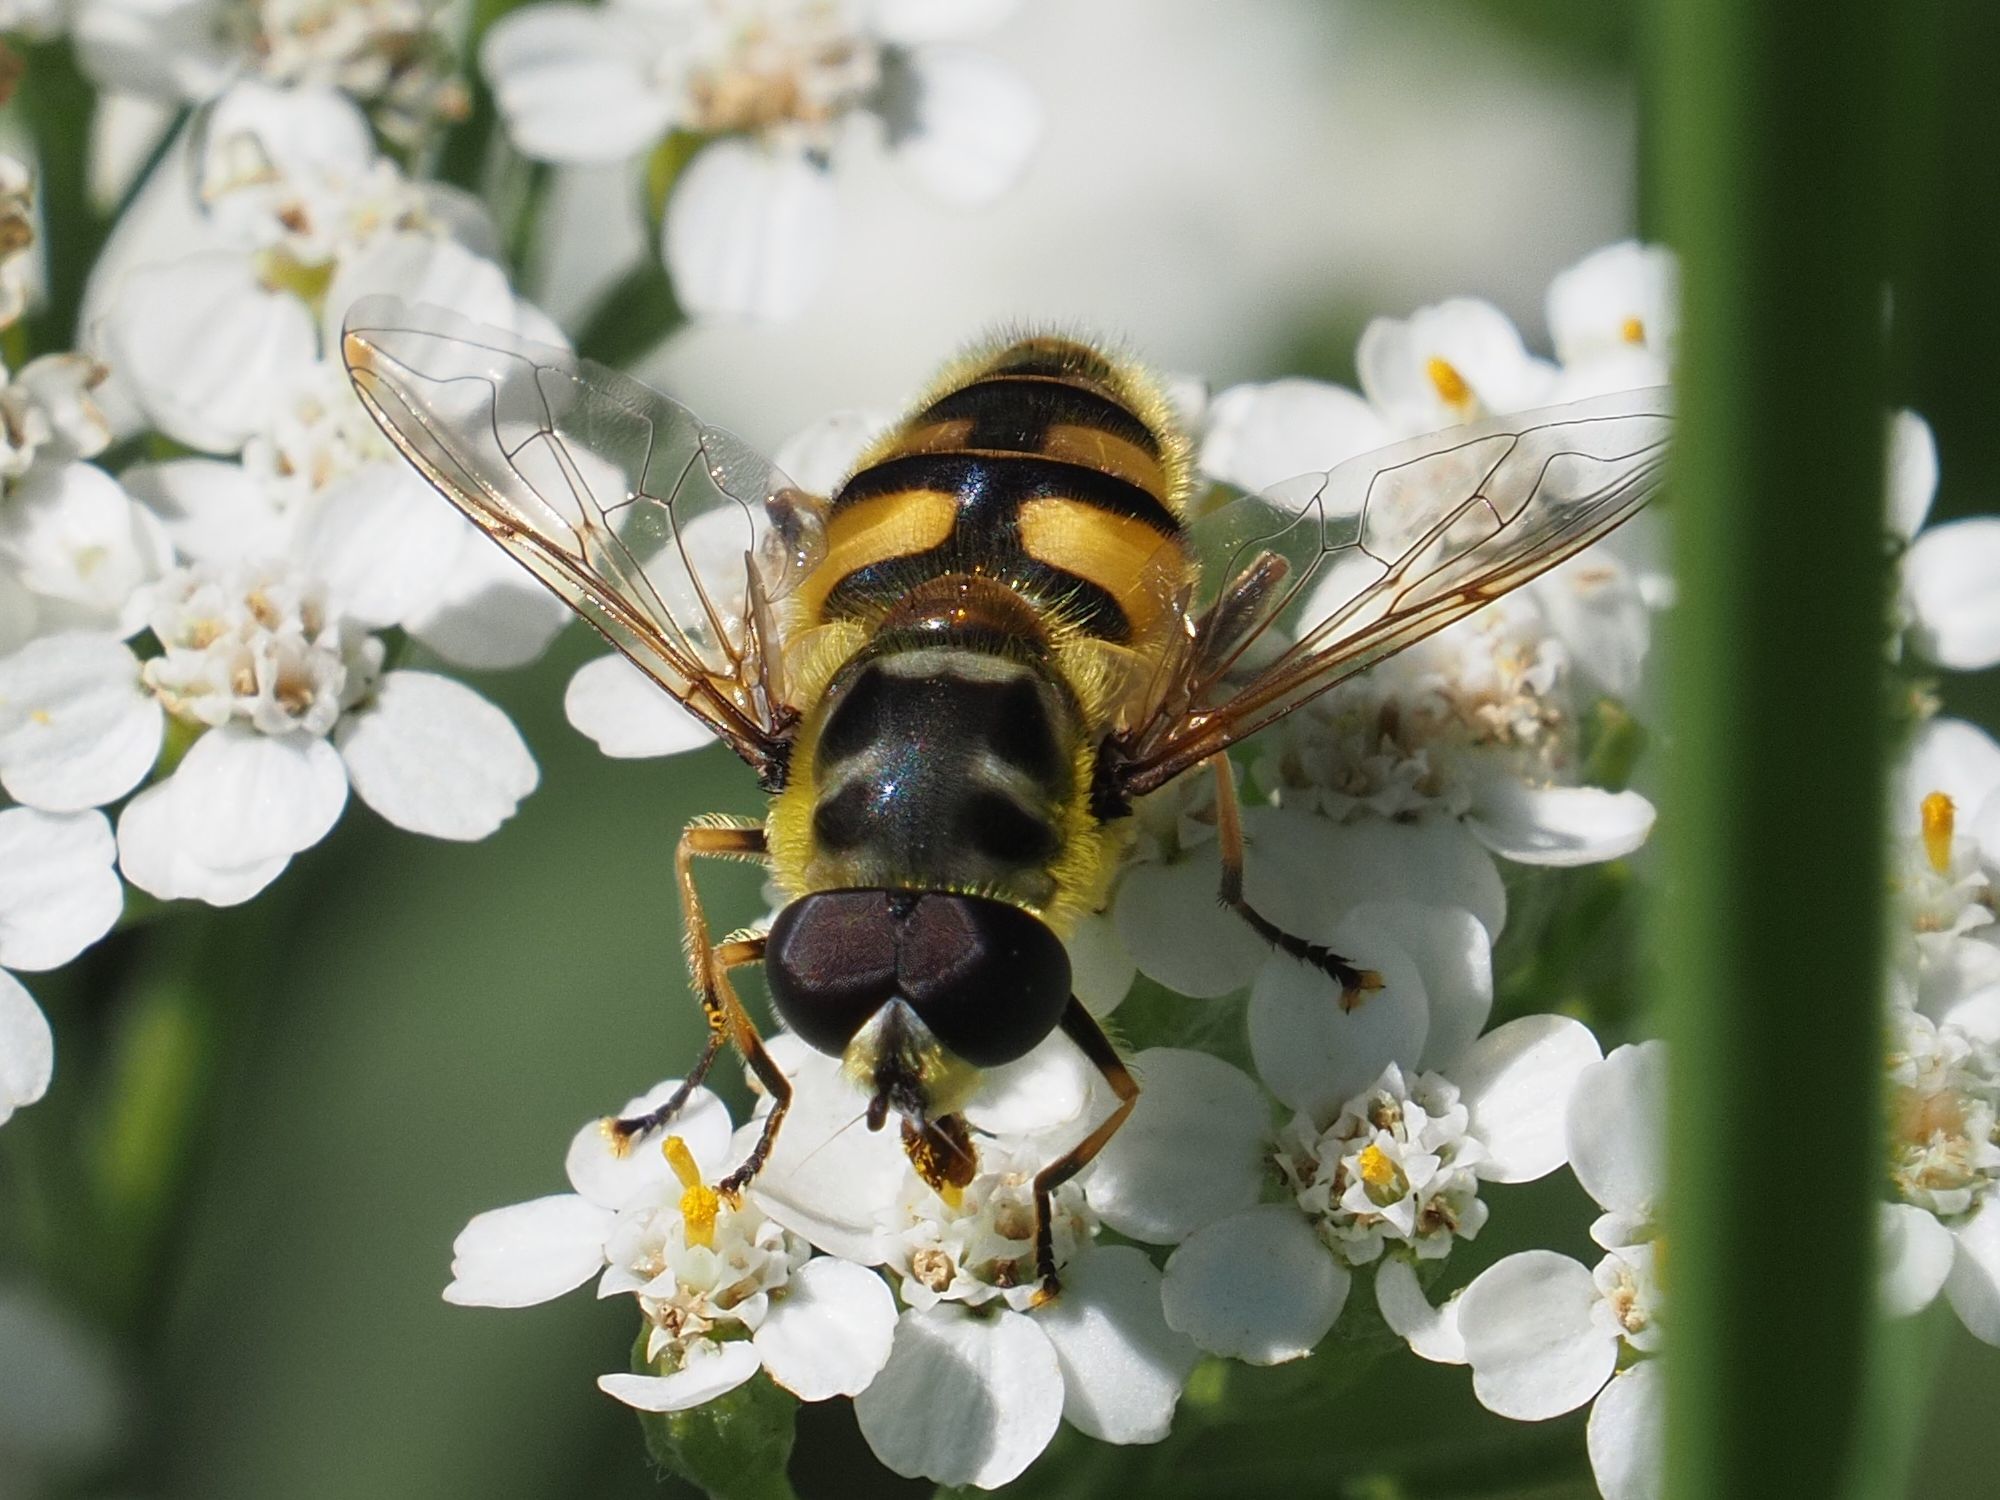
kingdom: Animalia
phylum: Arthropoda
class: Insecta
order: Diptera
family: Syrphidae
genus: Myathropa
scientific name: Myathropa florea
